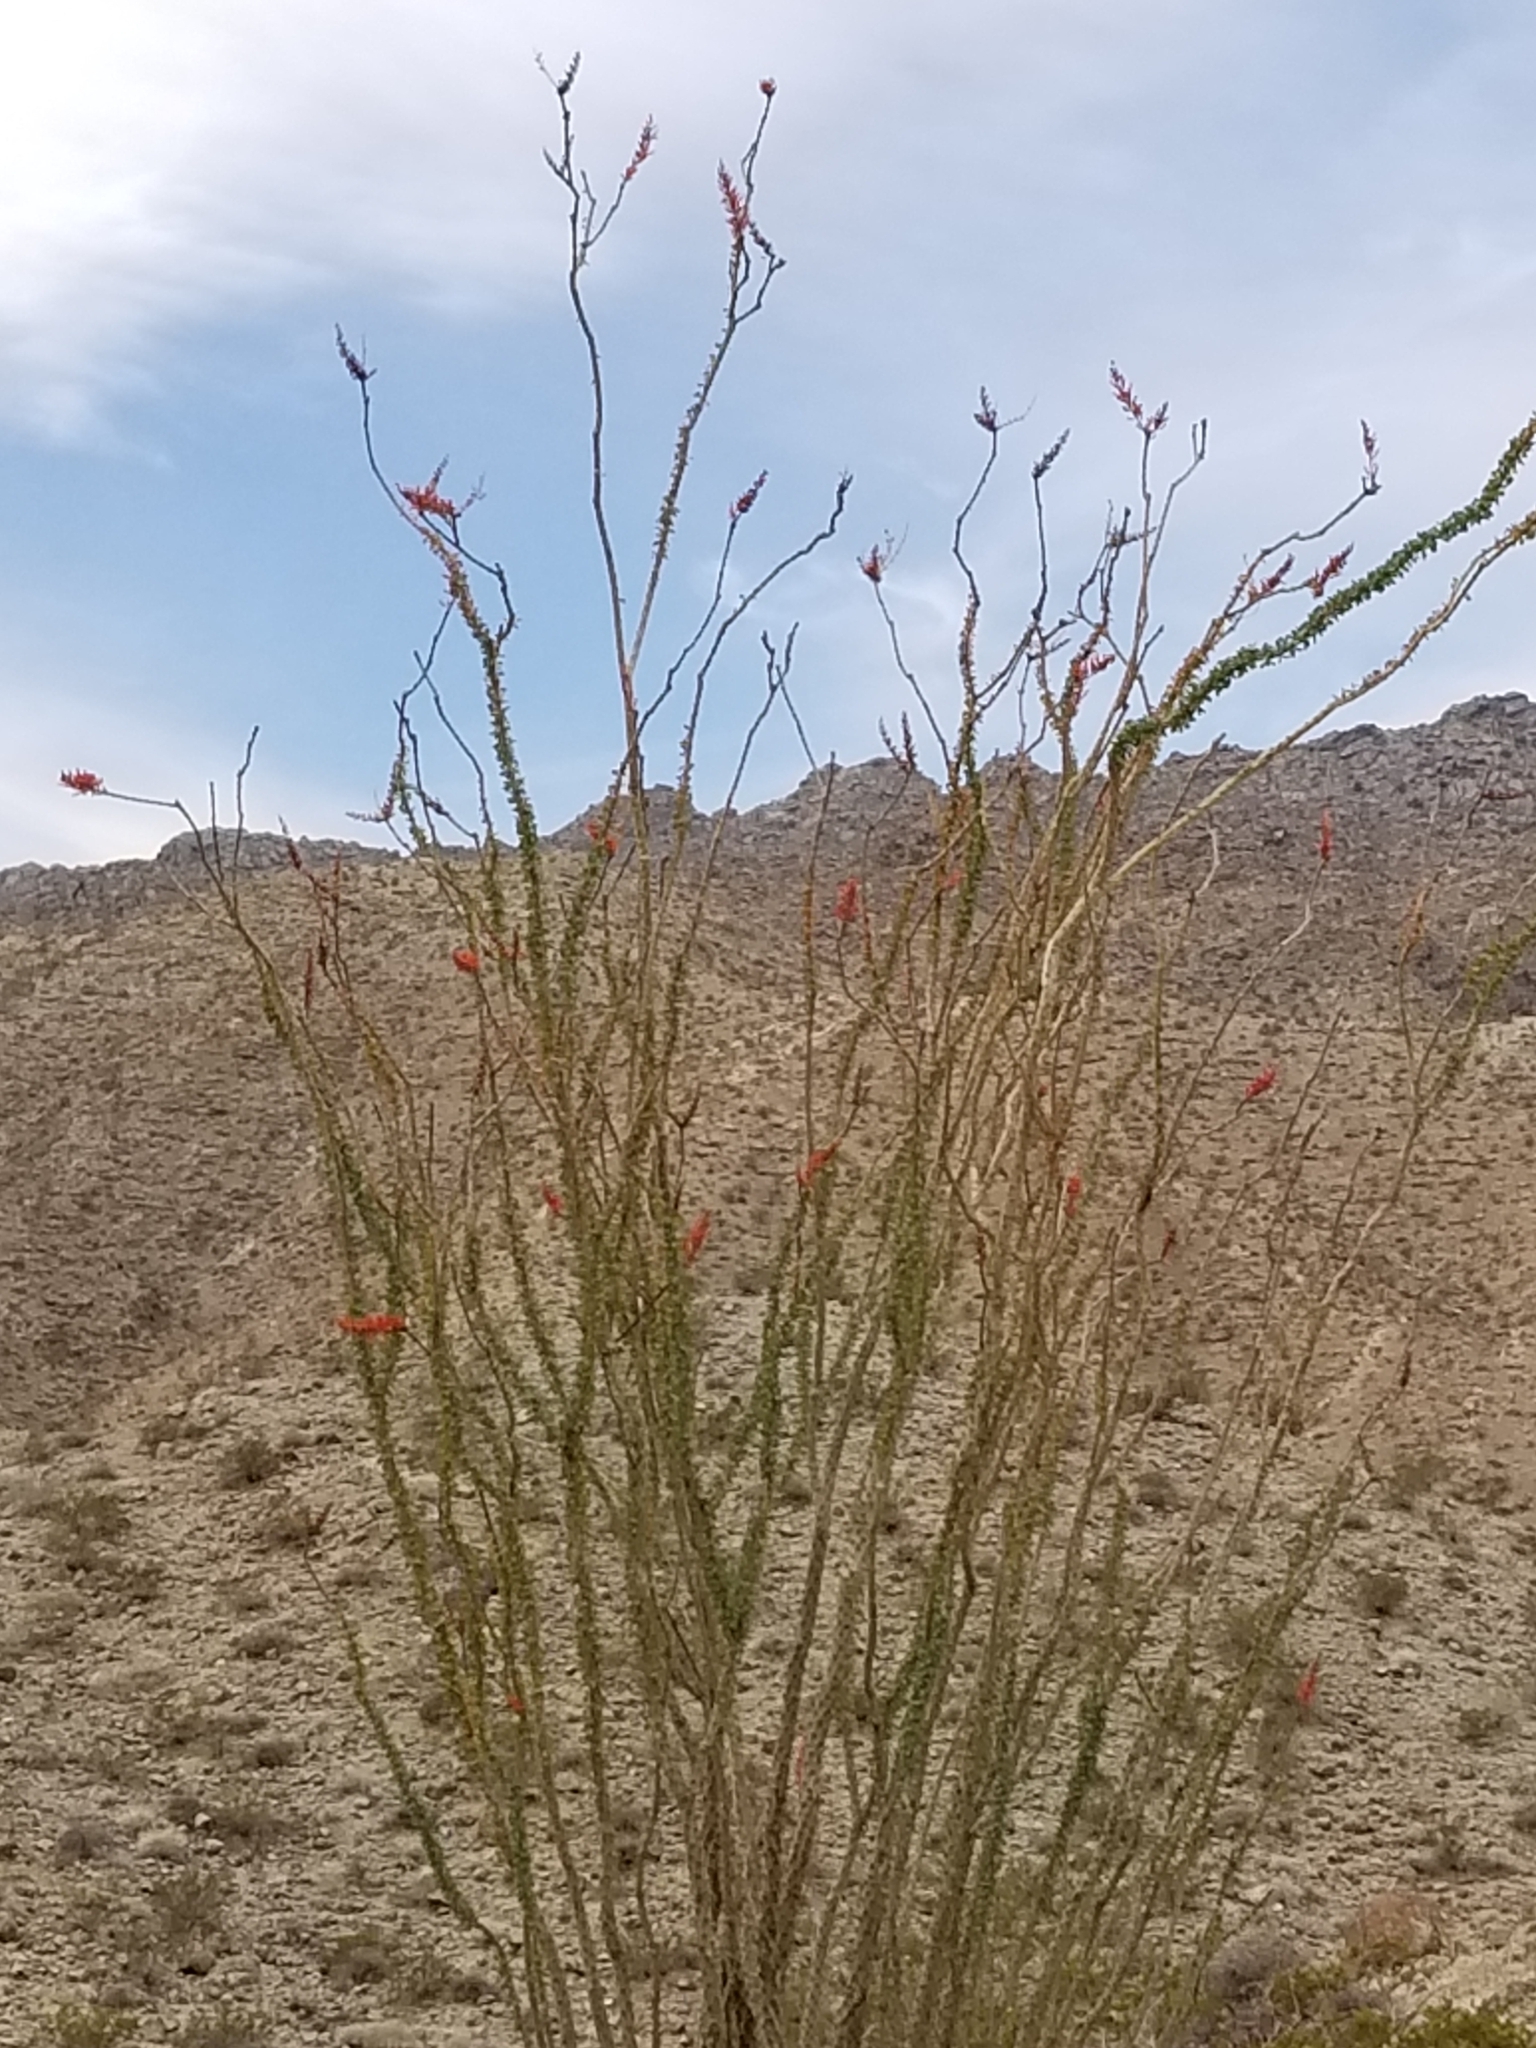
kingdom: Plantae
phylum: Tracheophyta
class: Magnoliopsida
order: Ericales
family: Fouquieriaceae
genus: Fouquieria
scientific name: Fouquieria splendens
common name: Vine-cactus
